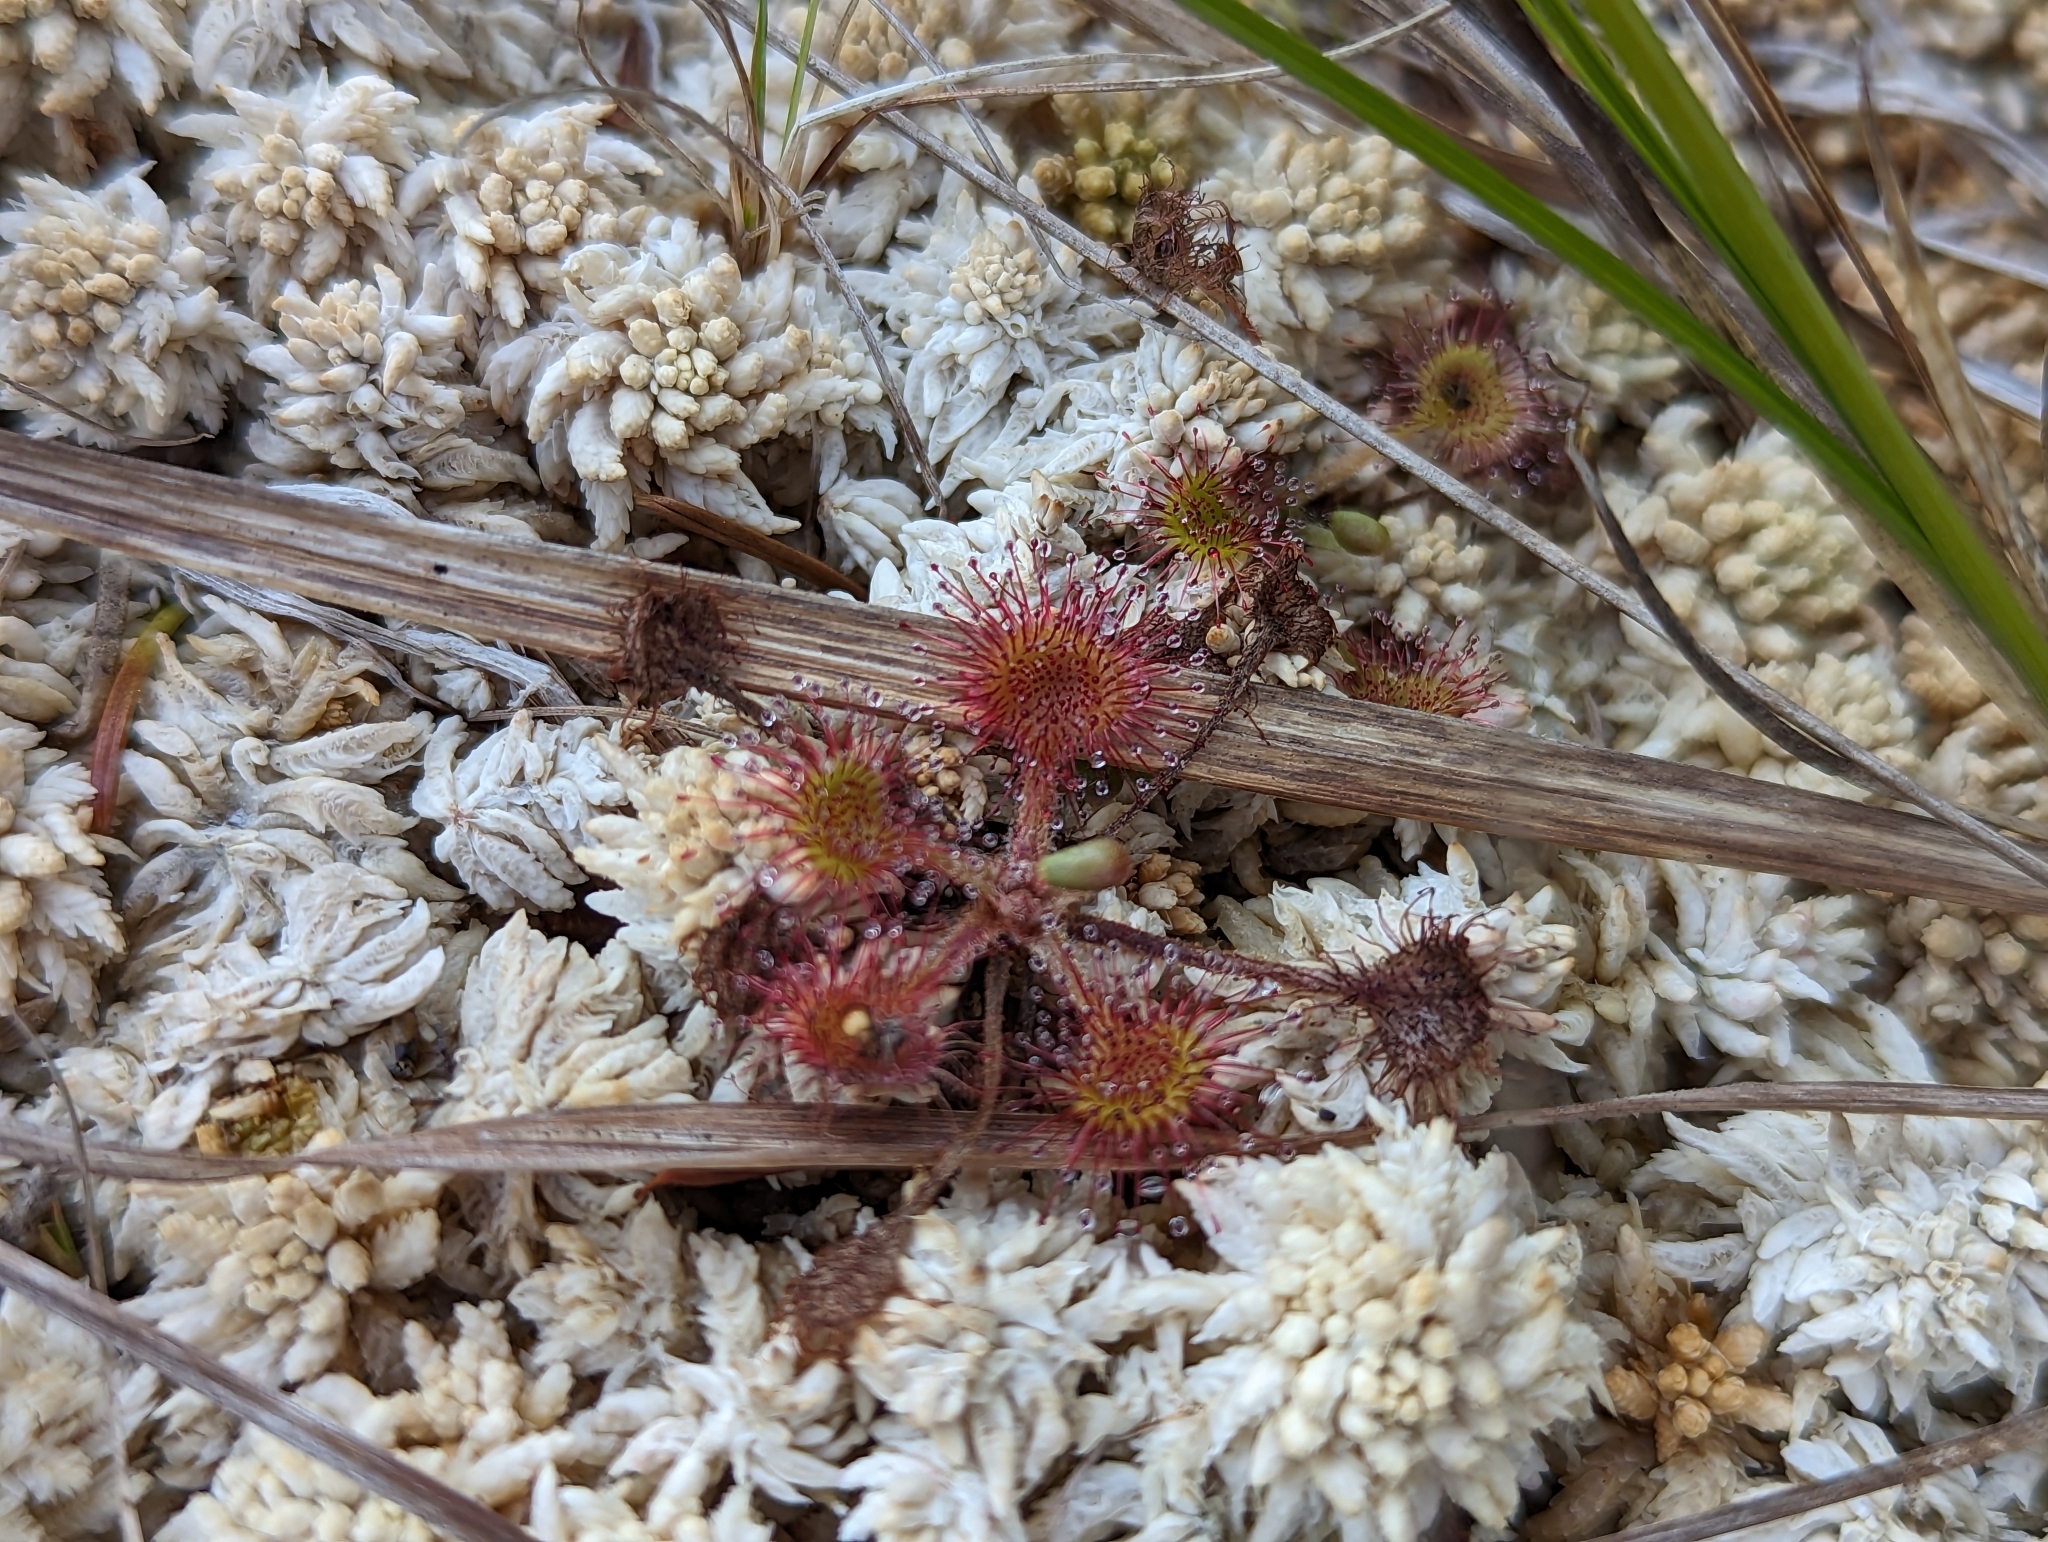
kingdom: Plantae
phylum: Tracheophyta
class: Magnoliopsida
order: Caryophyllales
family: Droseraceae
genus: Drosera
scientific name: Drosera rotundifolia
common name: Round-leaved sundew
